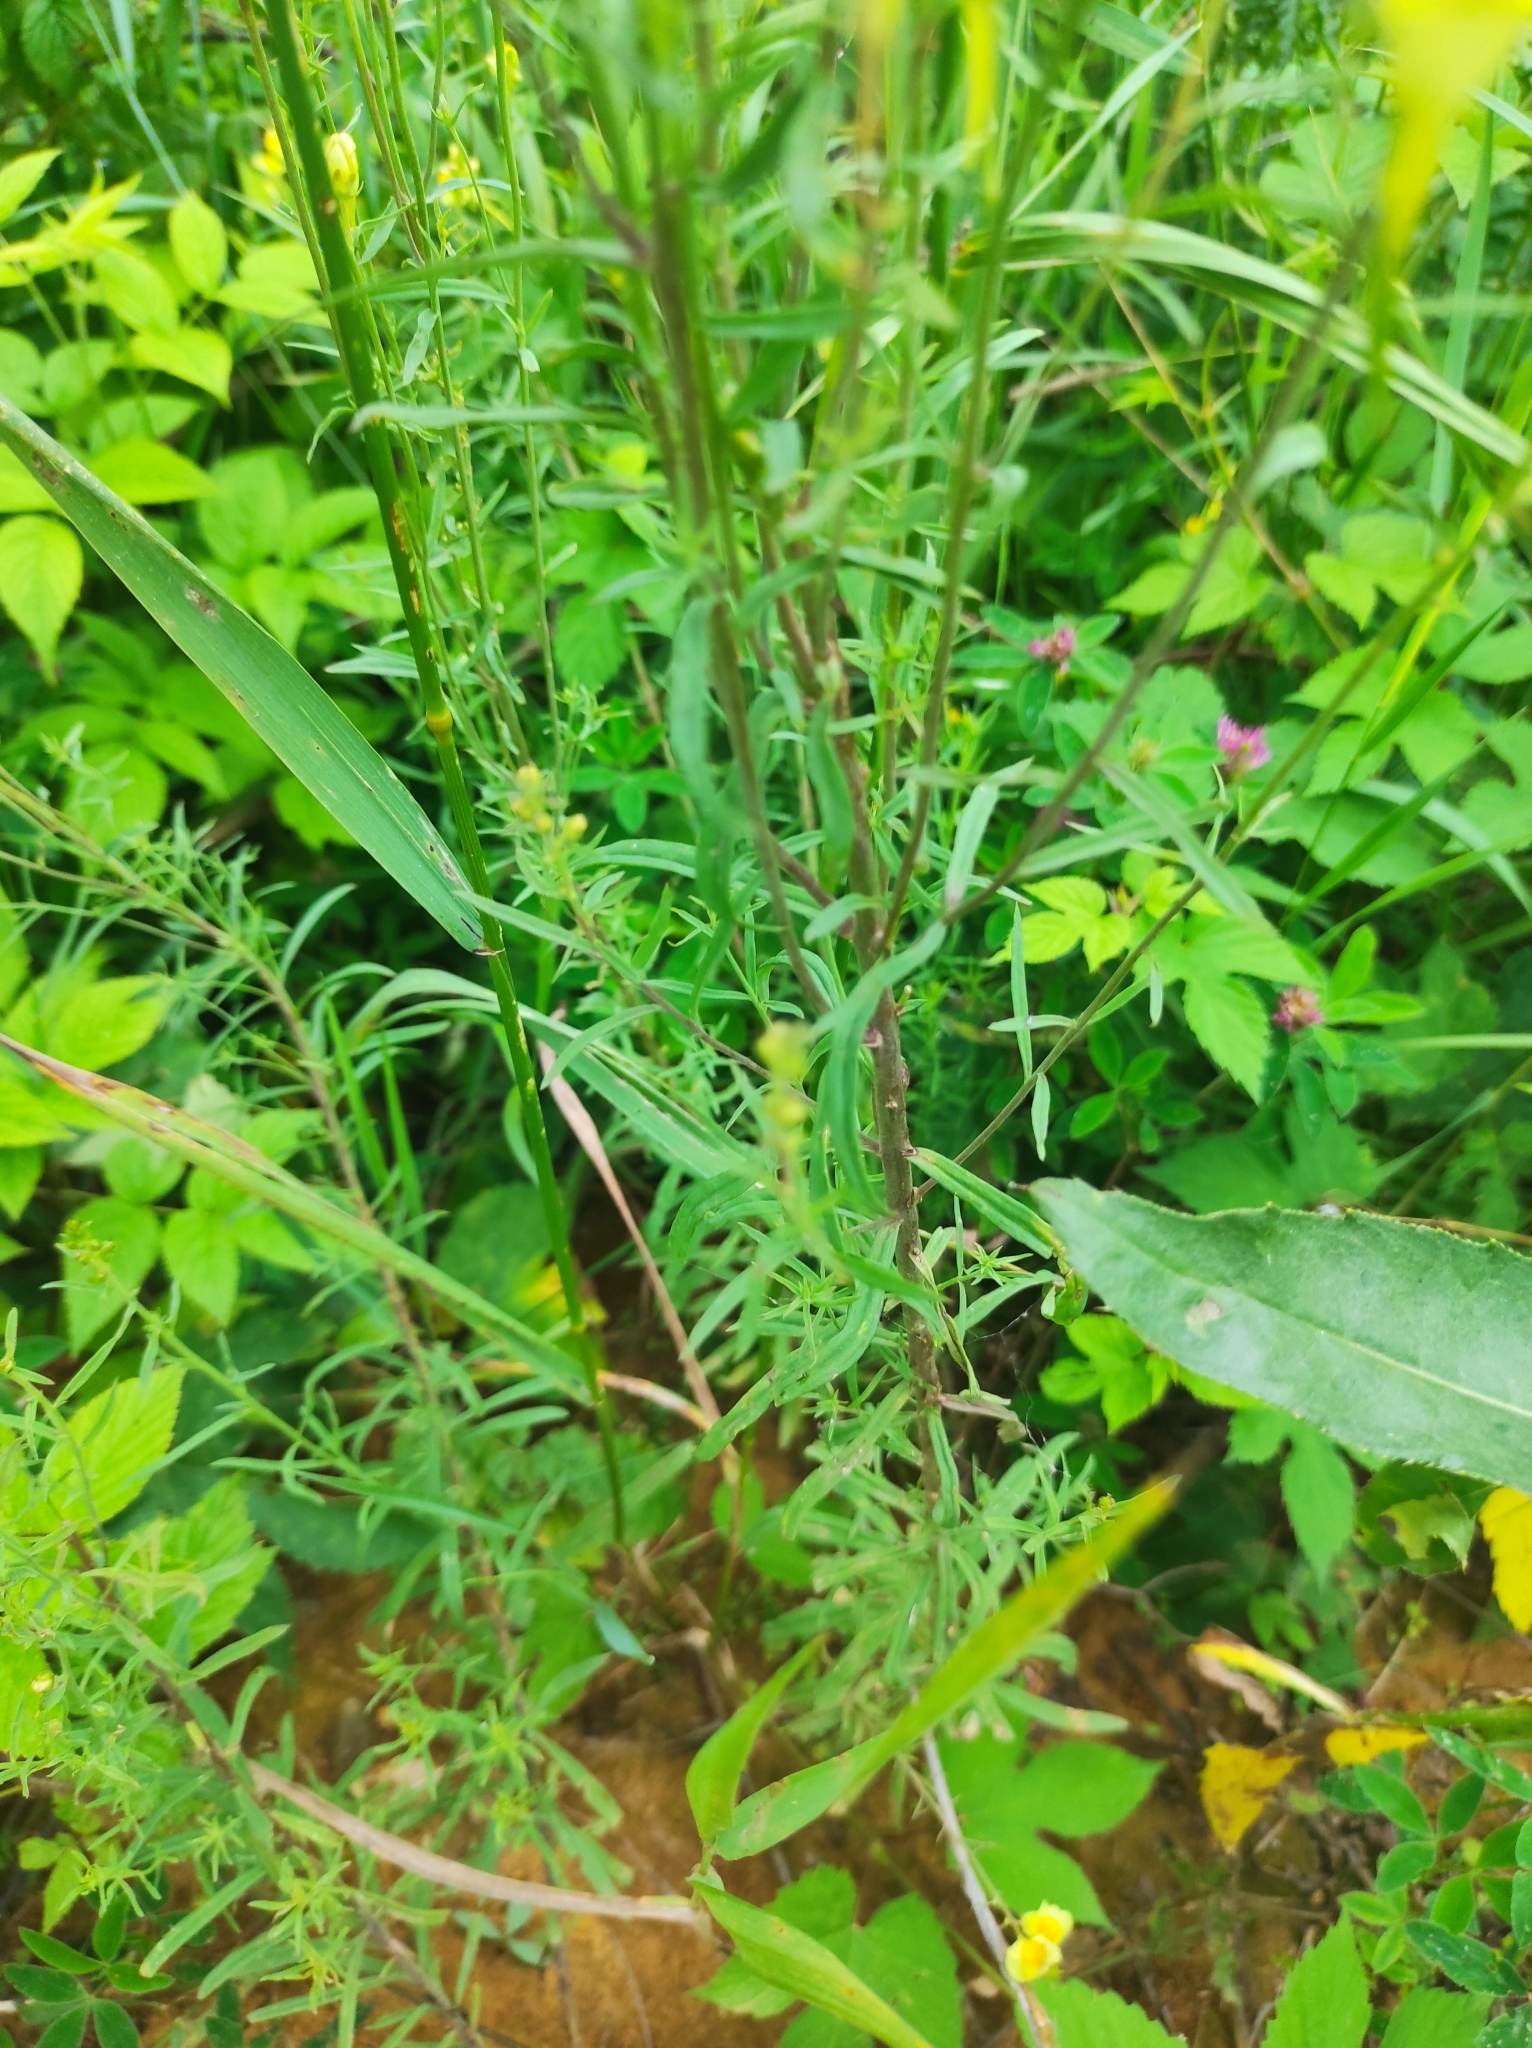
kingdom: Plantae
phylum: Tracheophyta
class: Magnoliopsida
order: Lamiales
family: Plantaginaceae
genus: Linaria
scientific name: Linaria vulgaris
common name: Butter and eggs
